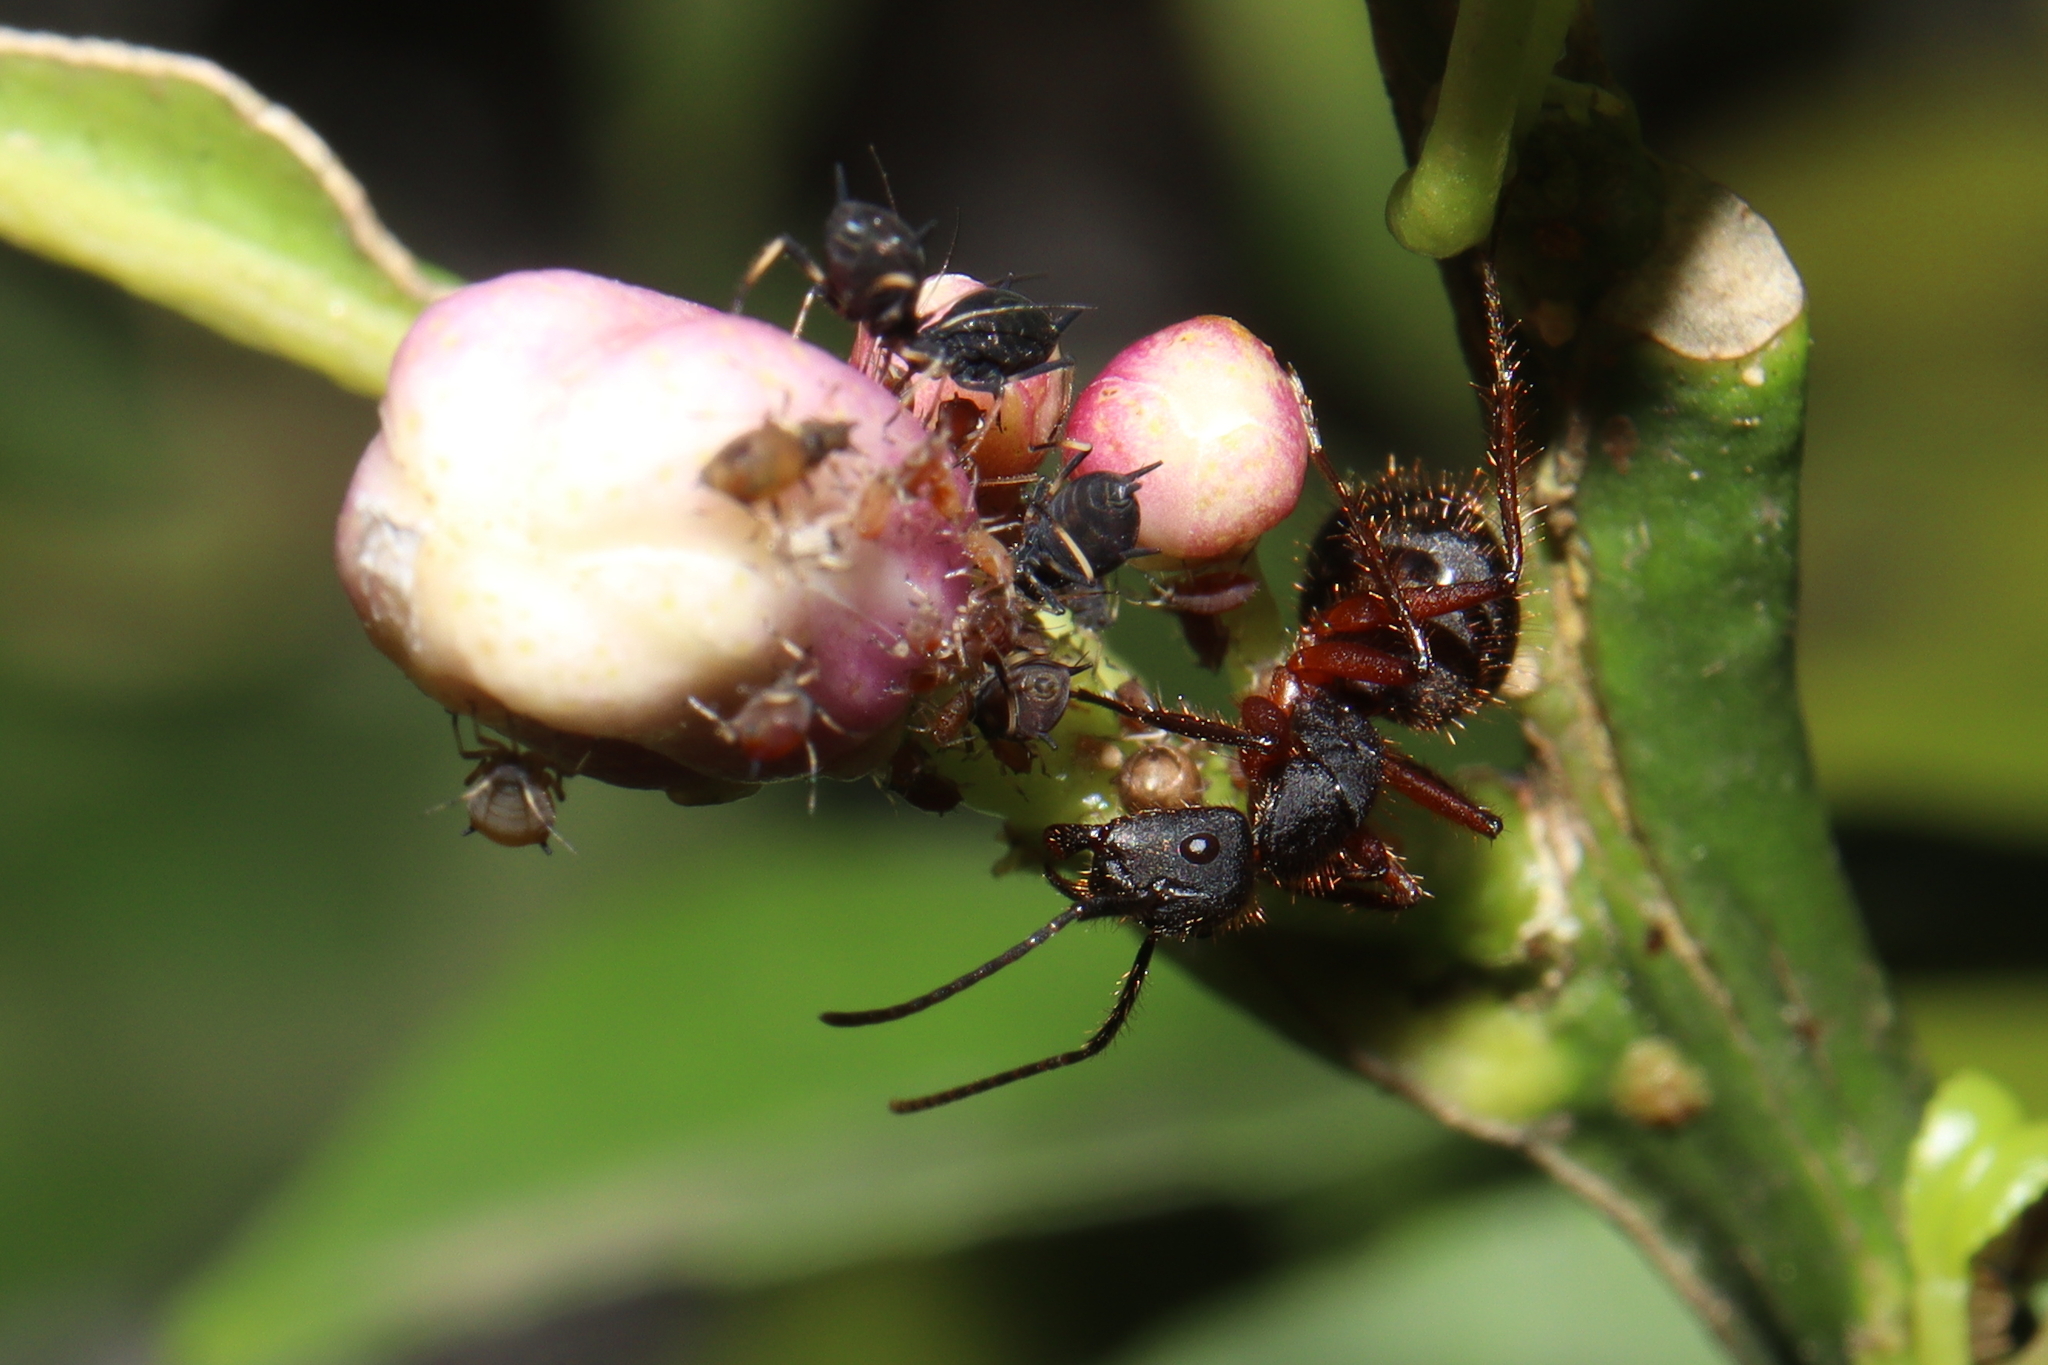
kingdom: Animalia
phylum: Arthropoda
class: Insecta
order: Hymenoptera
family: Formicidae
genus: Camponotus
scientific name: Camponotus rufipes
